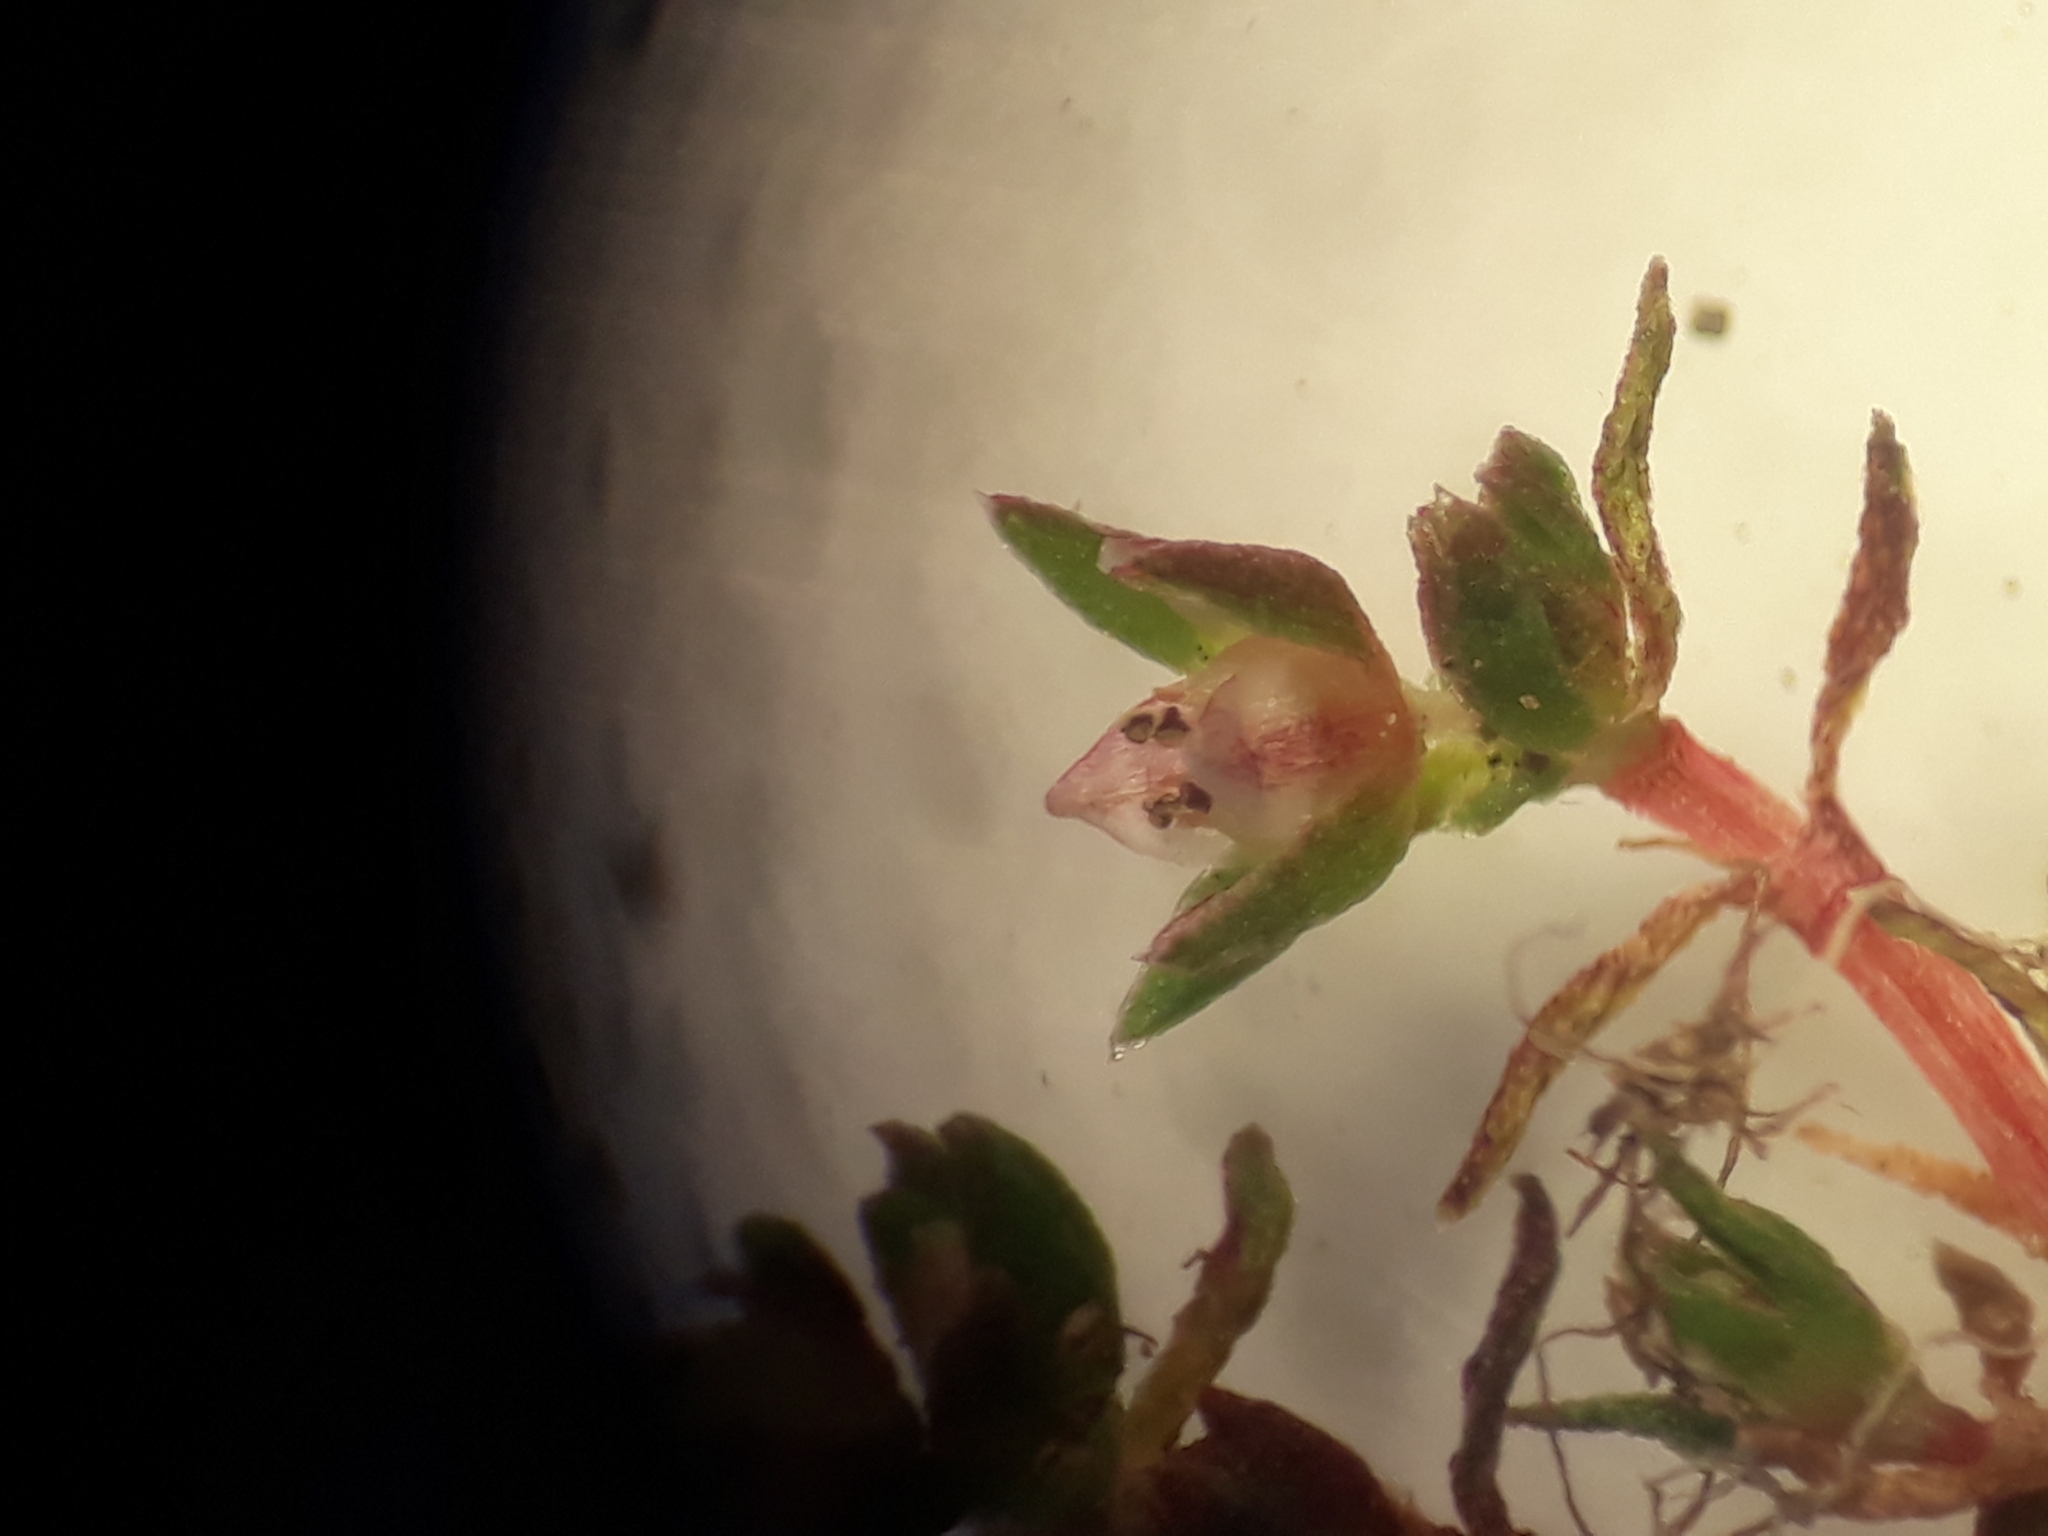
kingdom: Plantae
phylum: Tracheophyta
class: Magnoliopsida
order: Saxifragales
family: Crassulaceae
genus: Crassula
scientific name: Crassula mataikona
